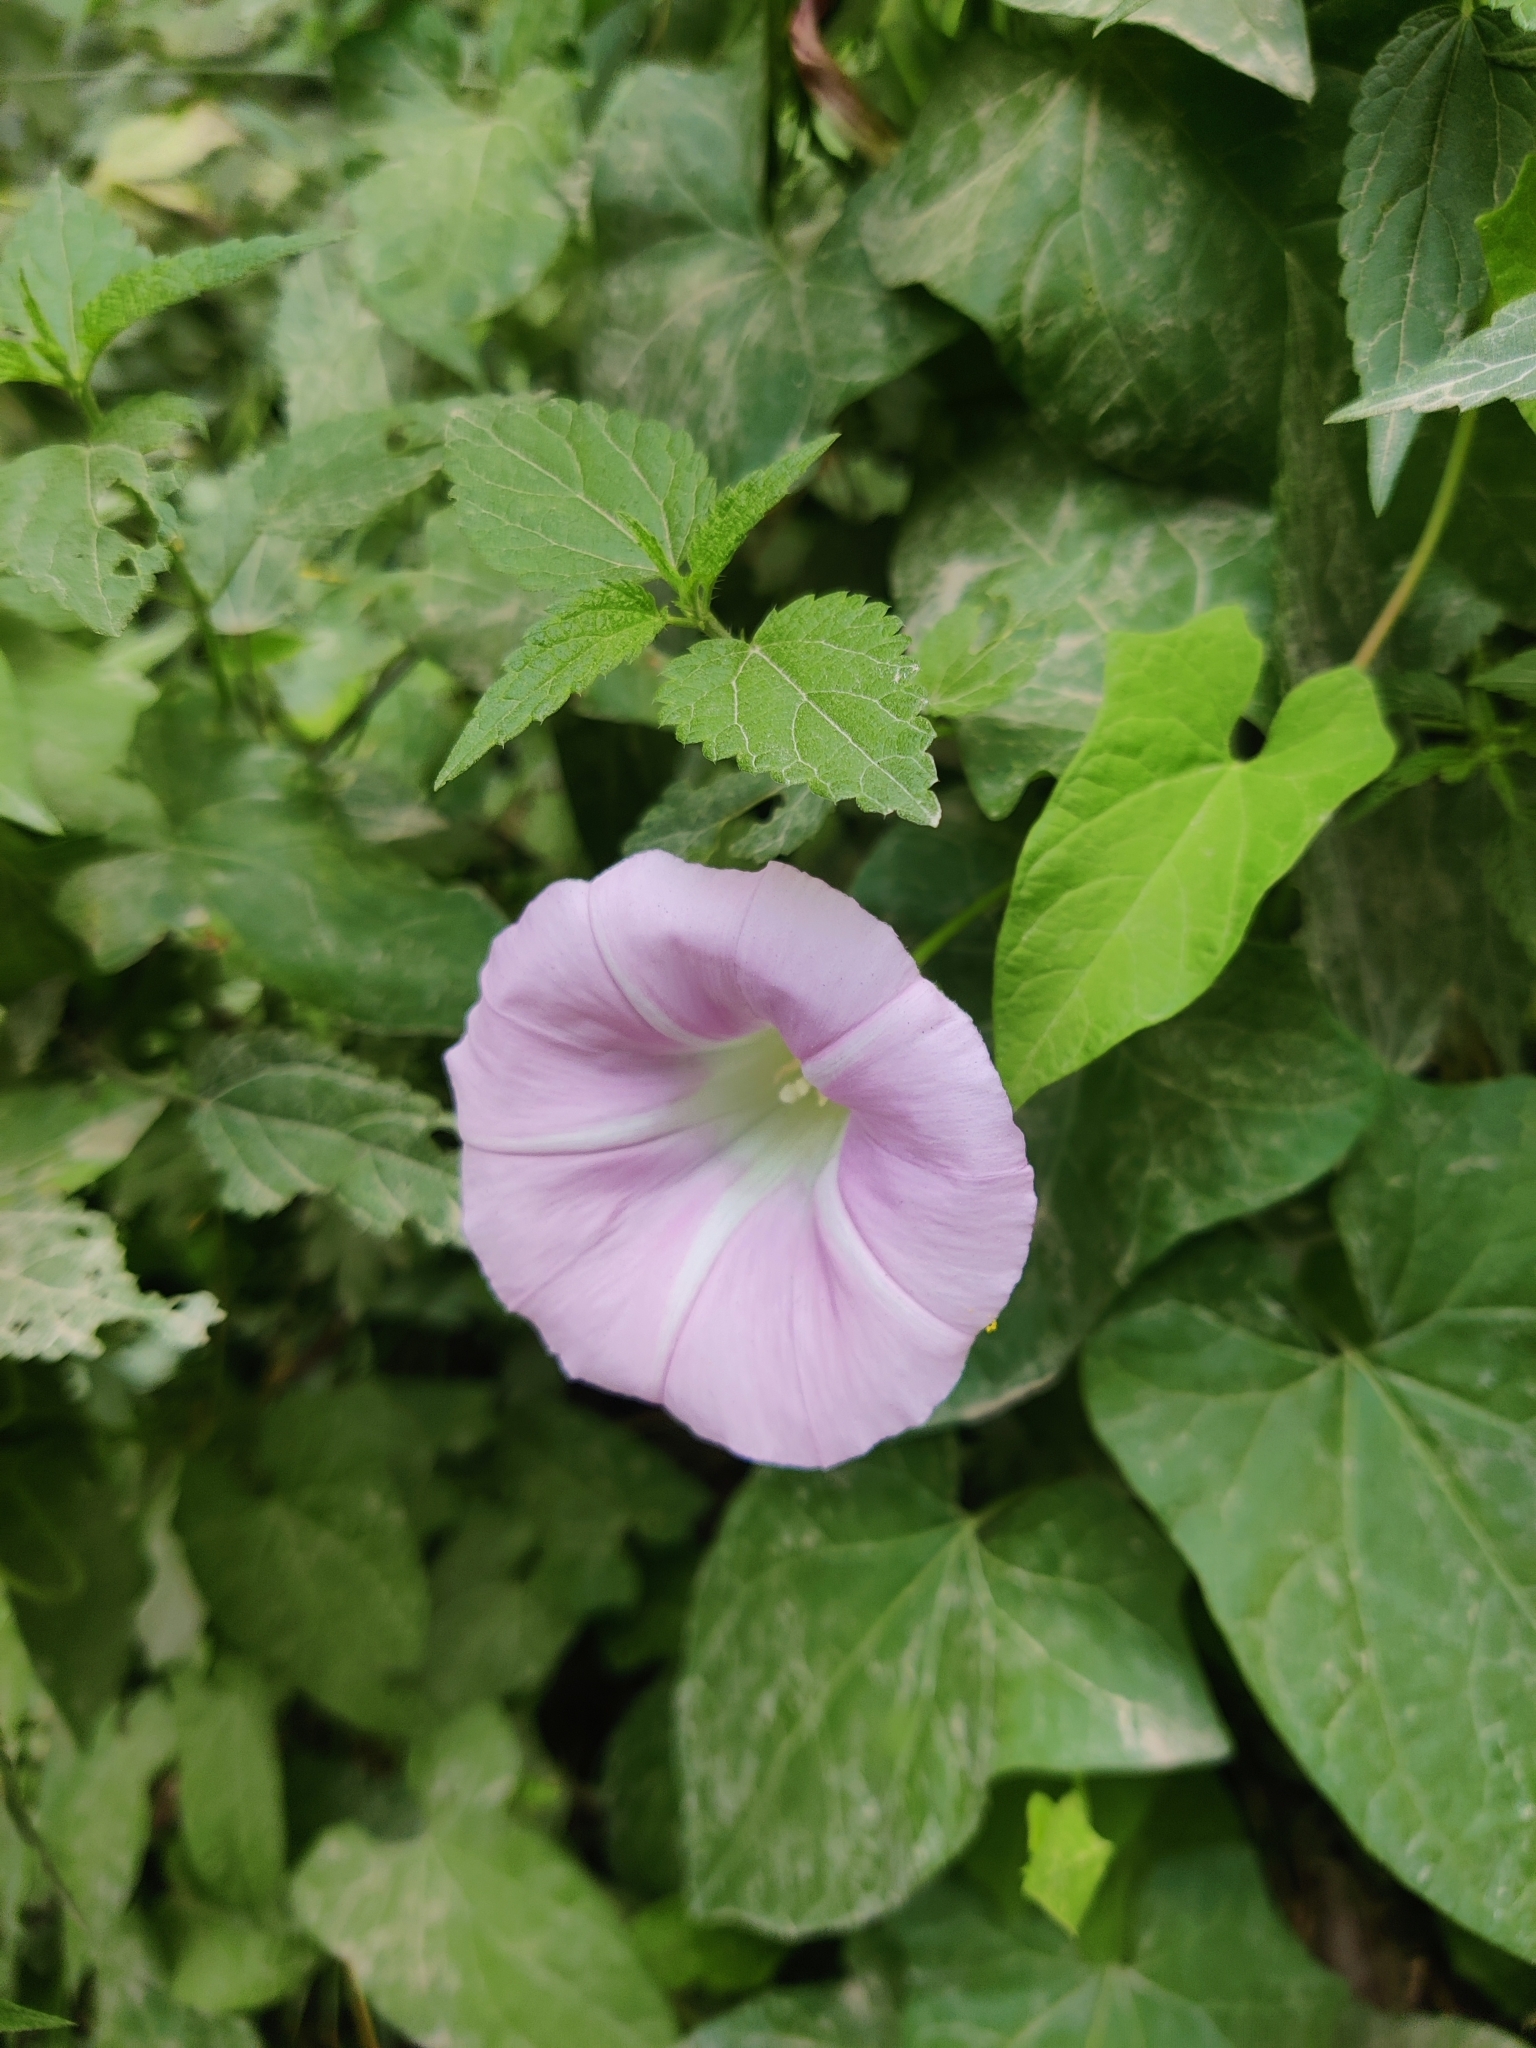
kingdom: Plantae
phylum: Tracheophyta
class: Magnoliopsida
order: Solanales
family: Convolvulaceae
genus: Calystegia
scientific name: Calystegia sepium
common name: Hedge bindweed
